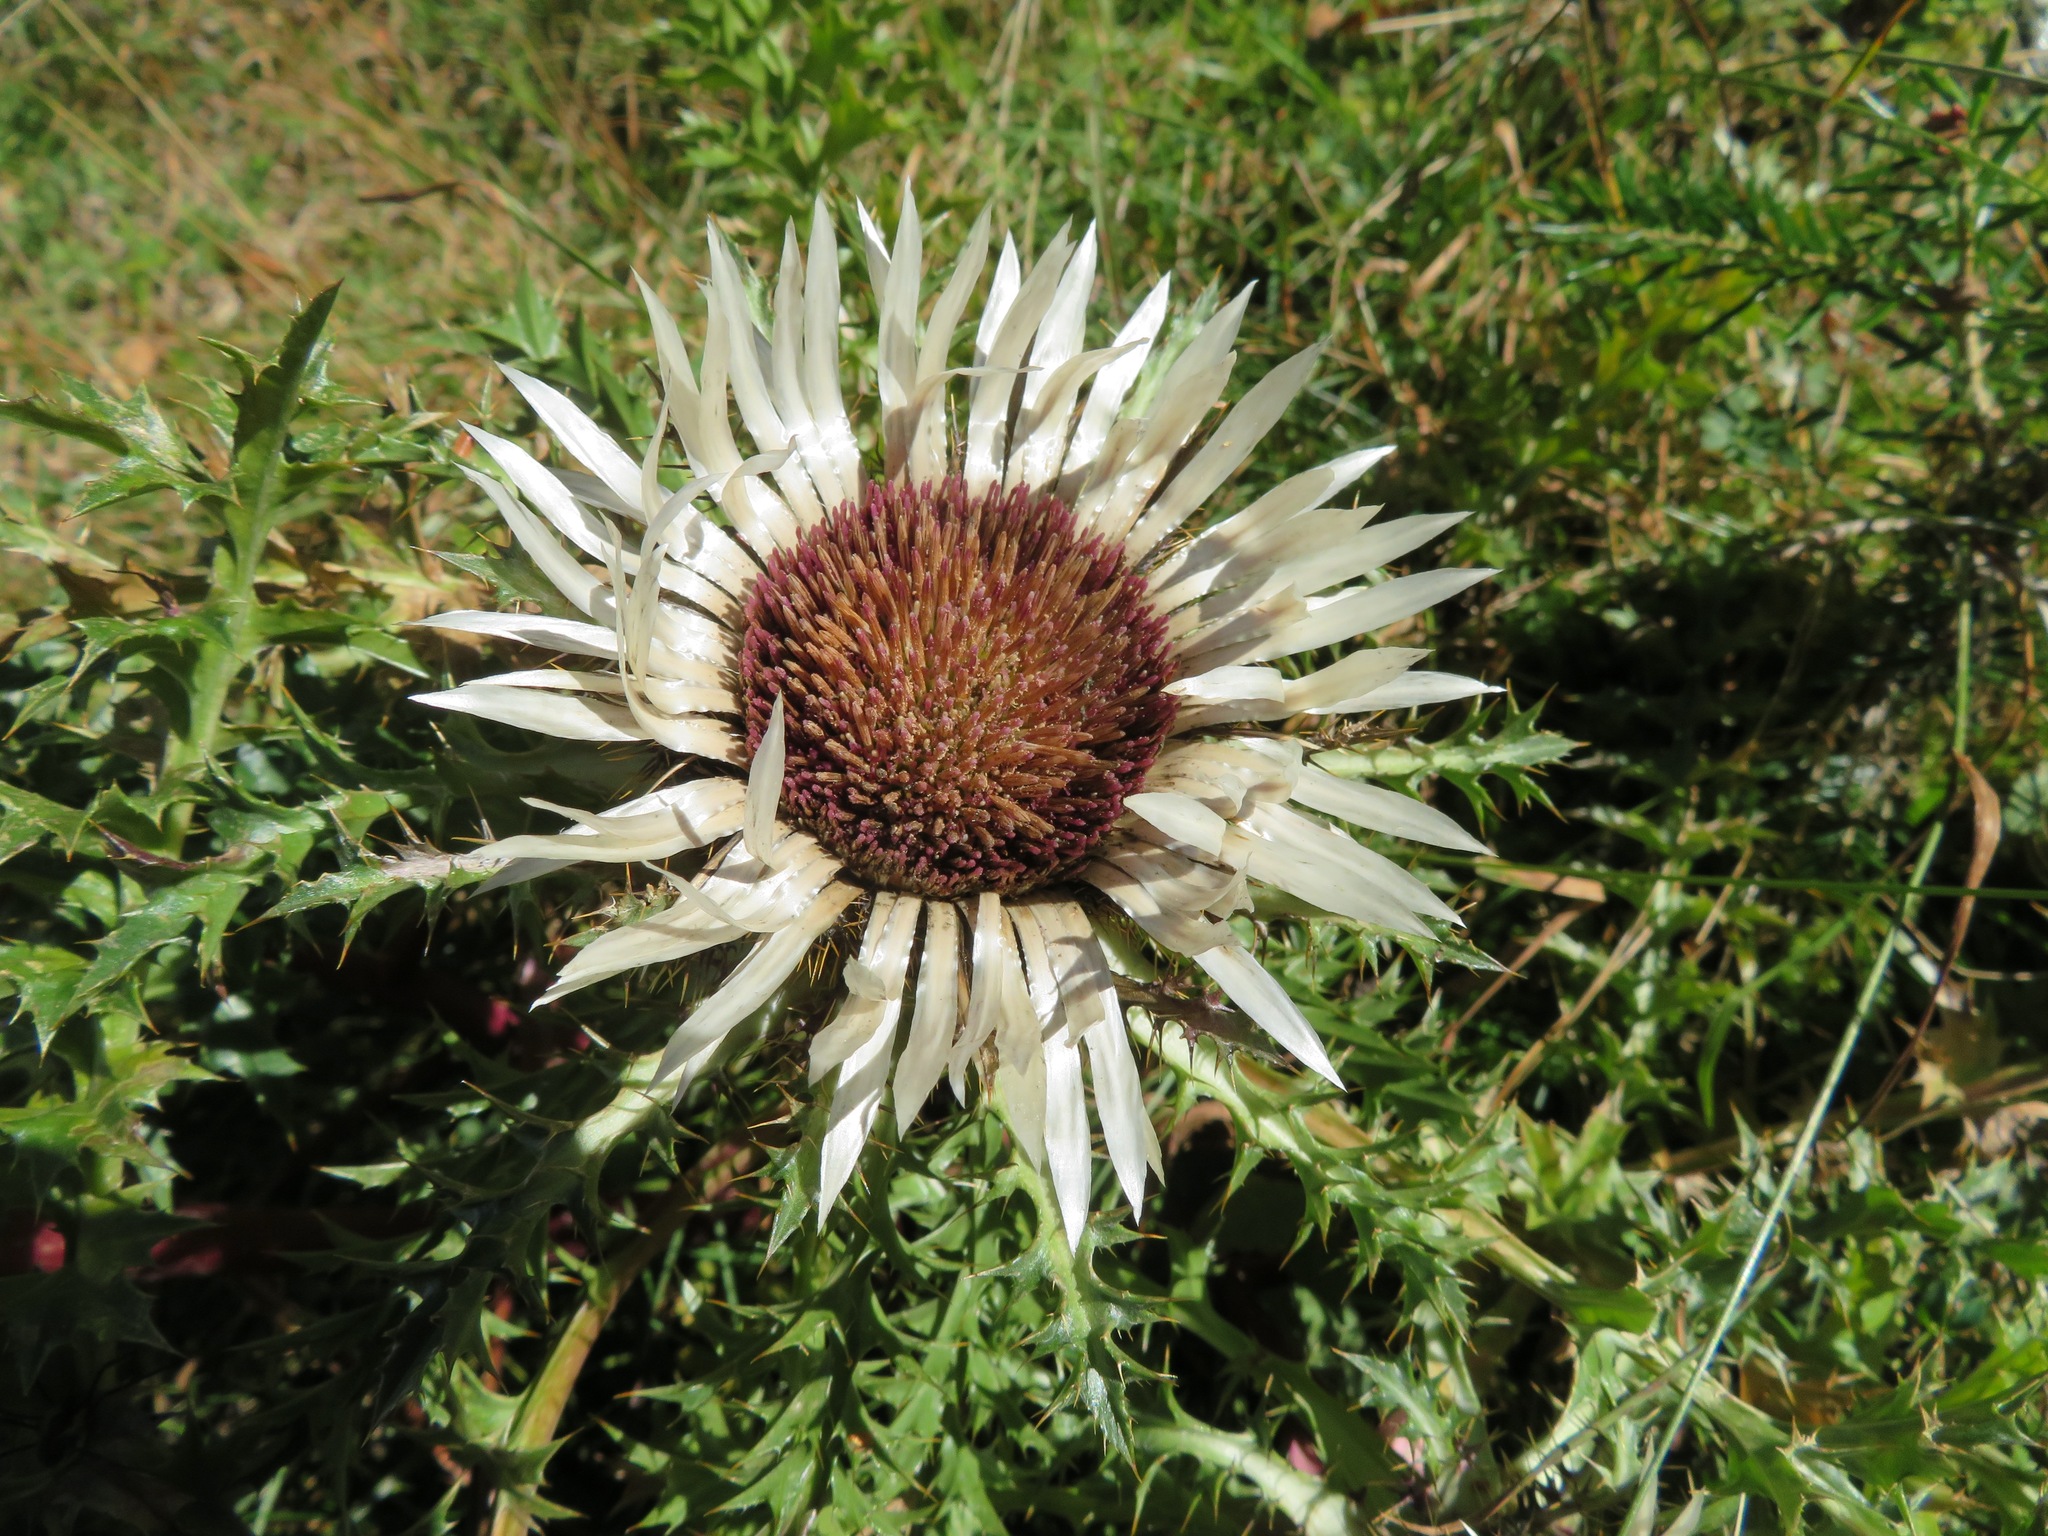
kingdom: Plantae
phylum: Tracheophyta
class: Magnoliopsida
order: Asterales
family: Asteraceae
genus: Carlina
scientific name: Carlina acaulis
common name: Stemless carline thistle
